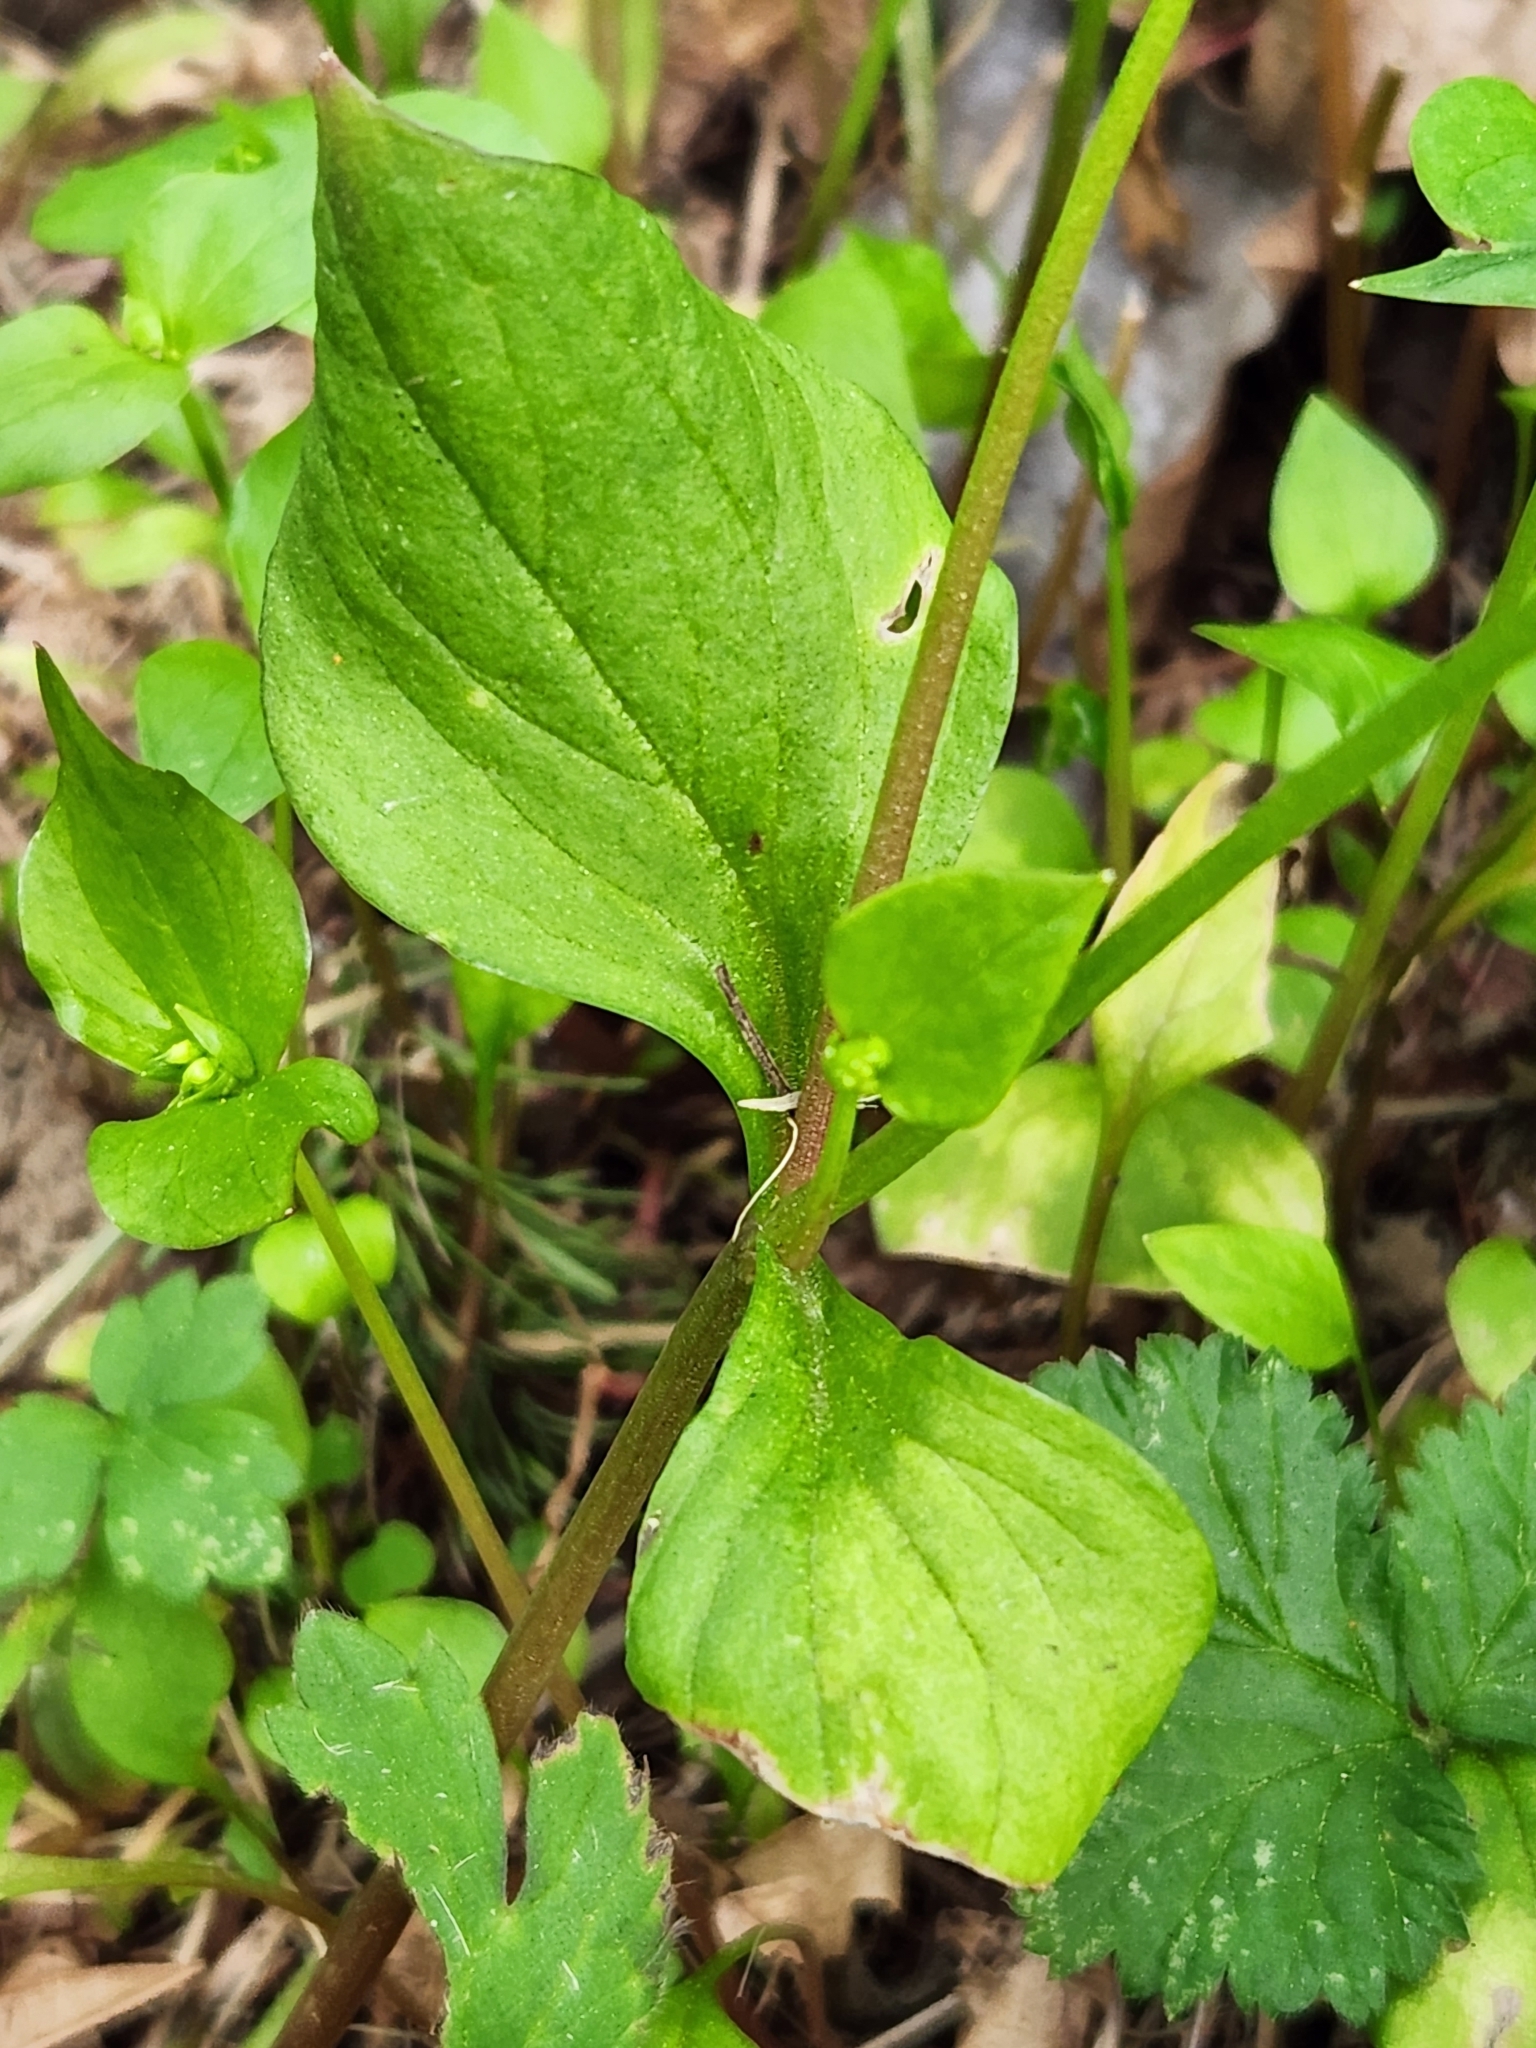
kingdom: Plantae
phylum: Tracheophyta
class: Magnoliopsida
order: Caryophyllales
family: Montiaceae
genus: Claytonia
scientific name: Claytonia sibirica
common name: Pink purslane
